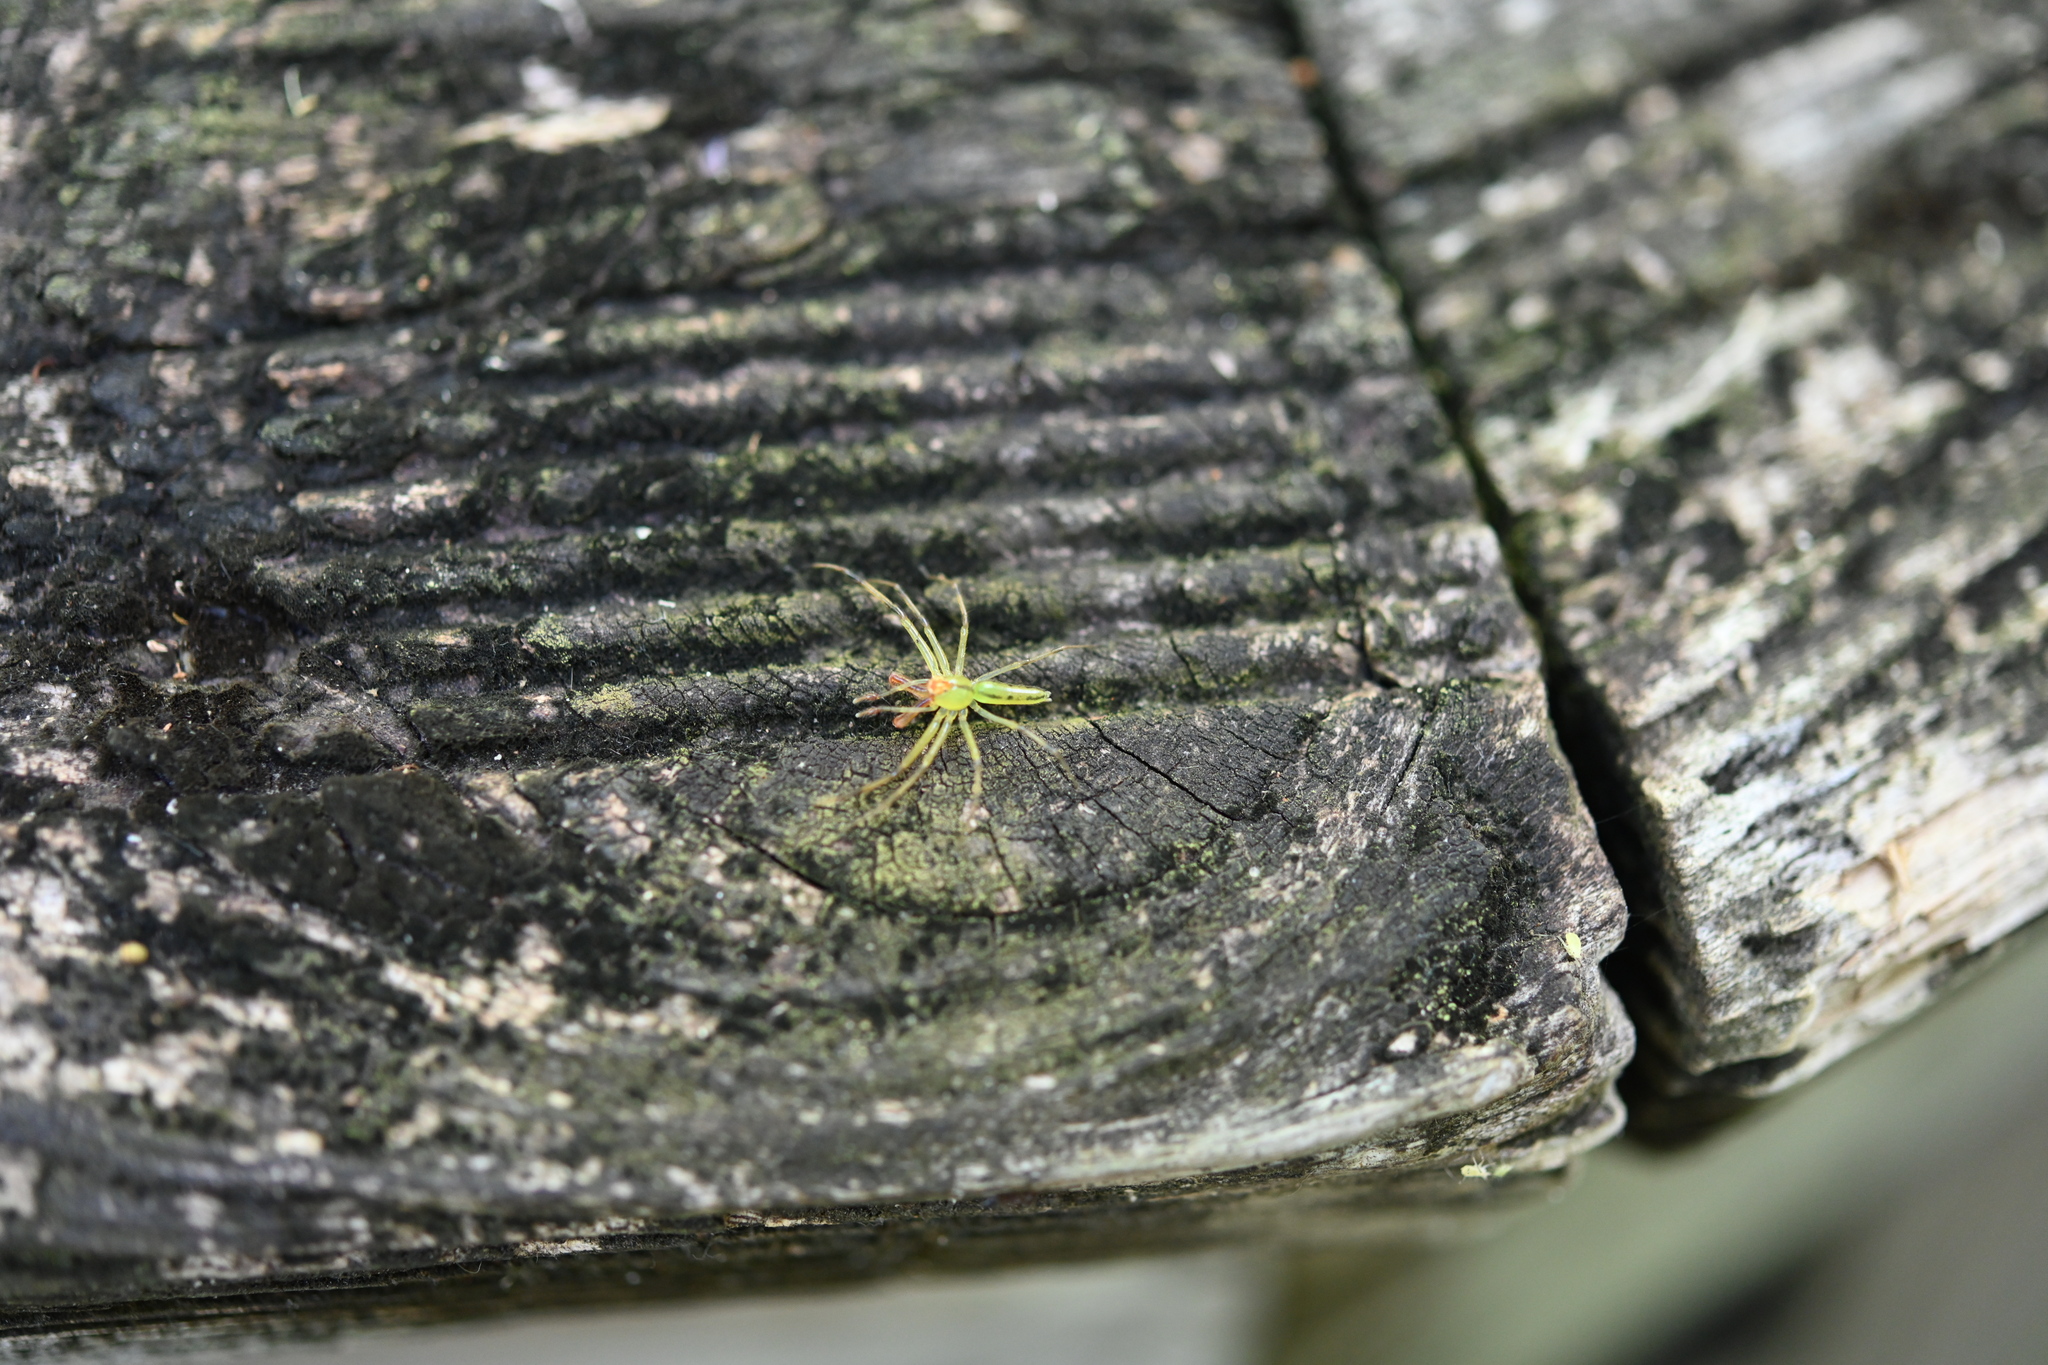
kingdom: Animalia
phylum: Arthropoda
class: Arachnida
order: Araneae
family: Salticidae
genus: Lyssomanes
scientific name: Lyssomanes viridis
